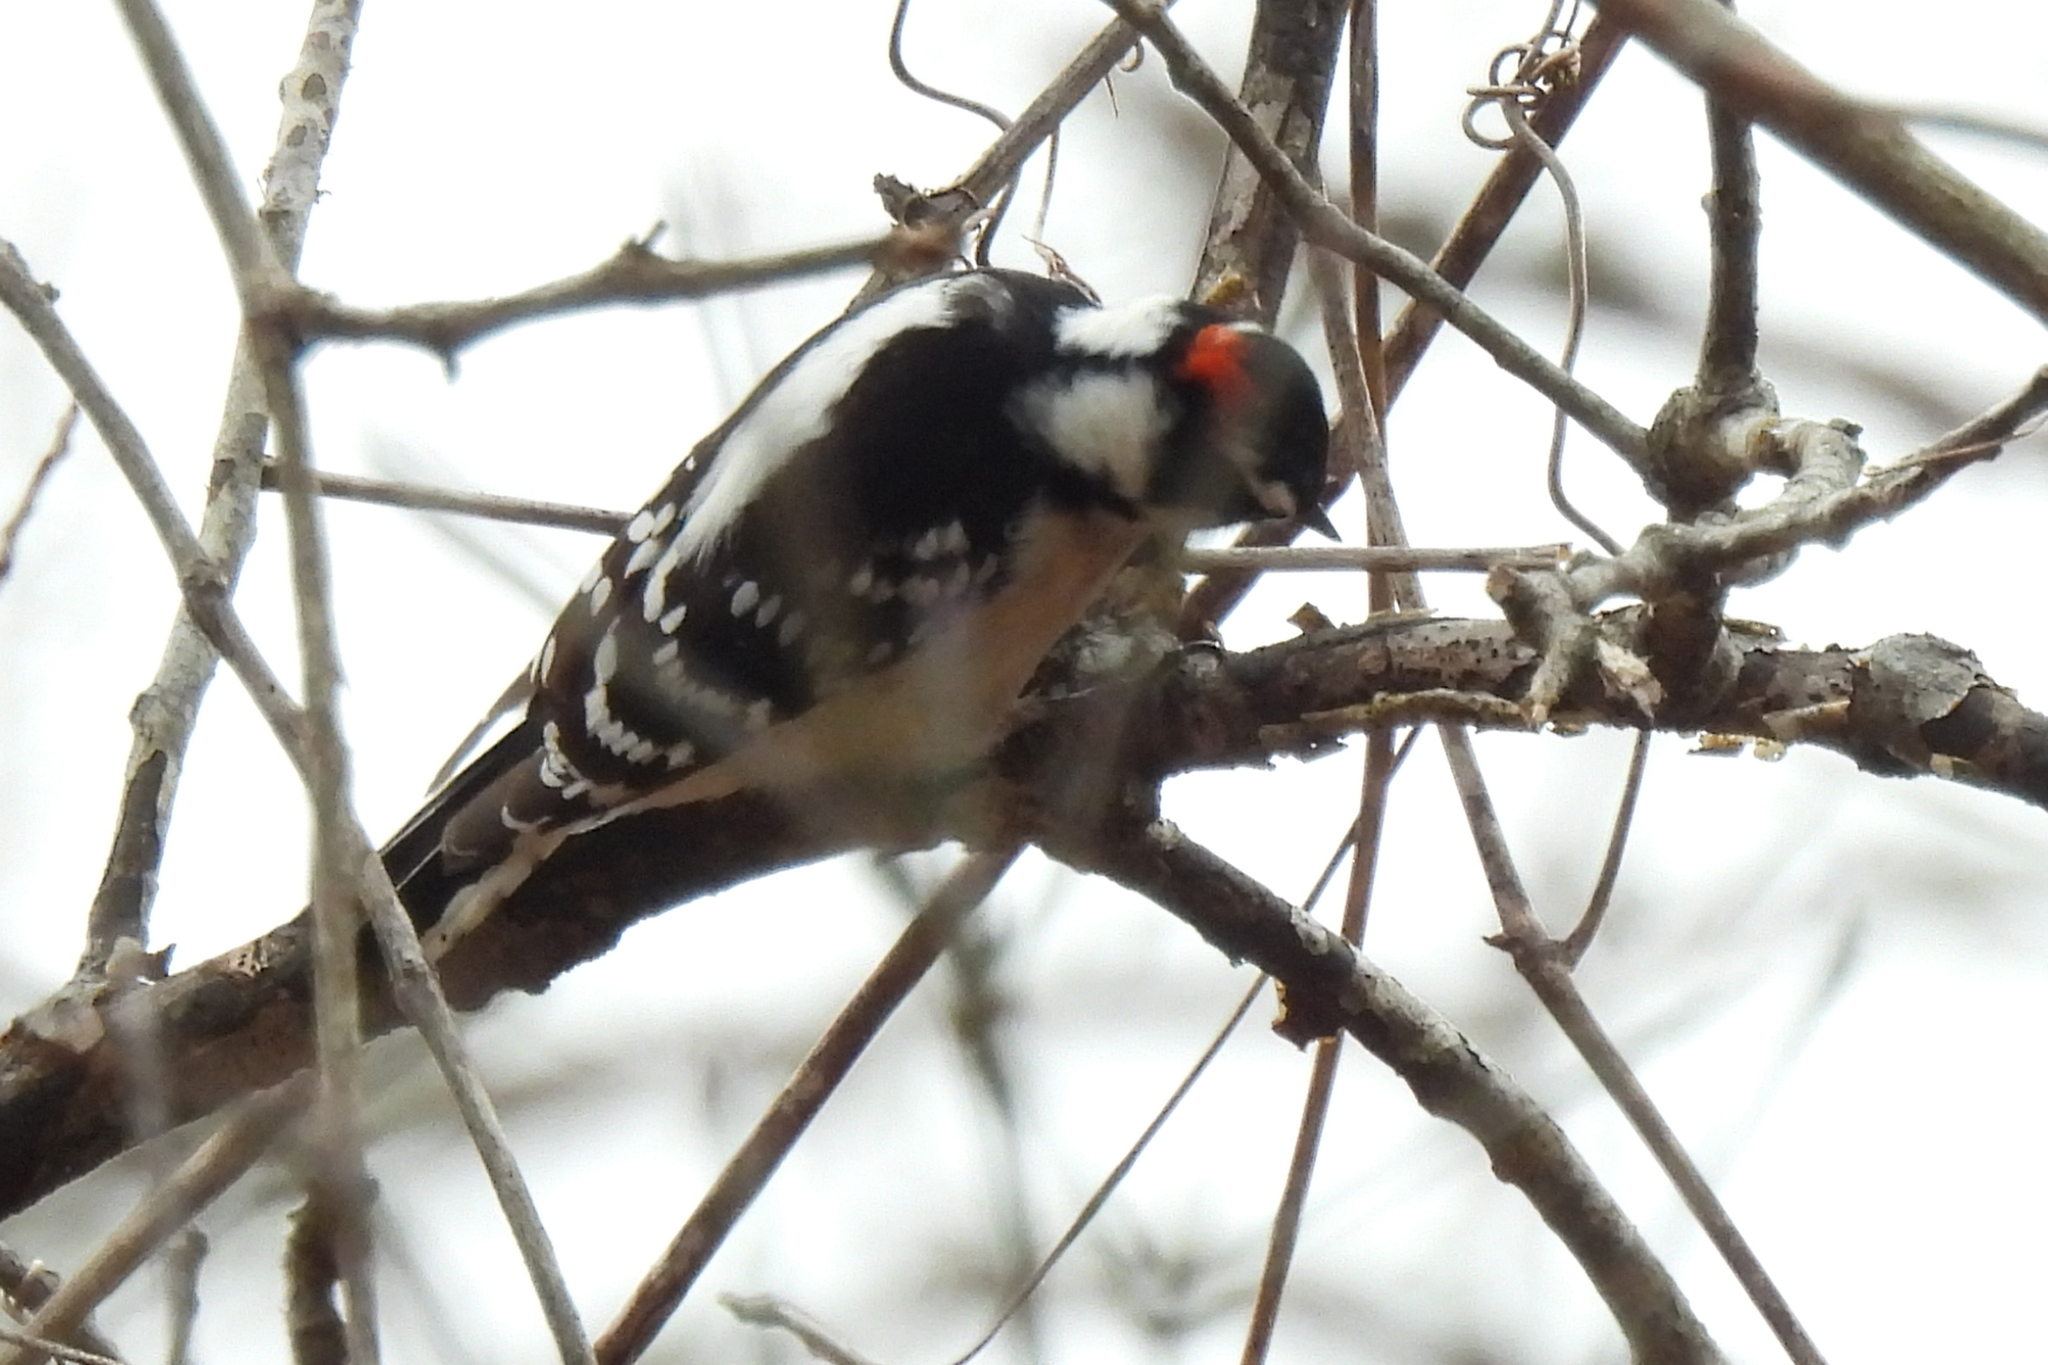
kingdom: Animalia
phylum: Chordata
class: Aves
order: Piciformes
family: Picidae
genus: Dryobates
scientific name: Dryobates pubescens
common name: Downy woodpecker
